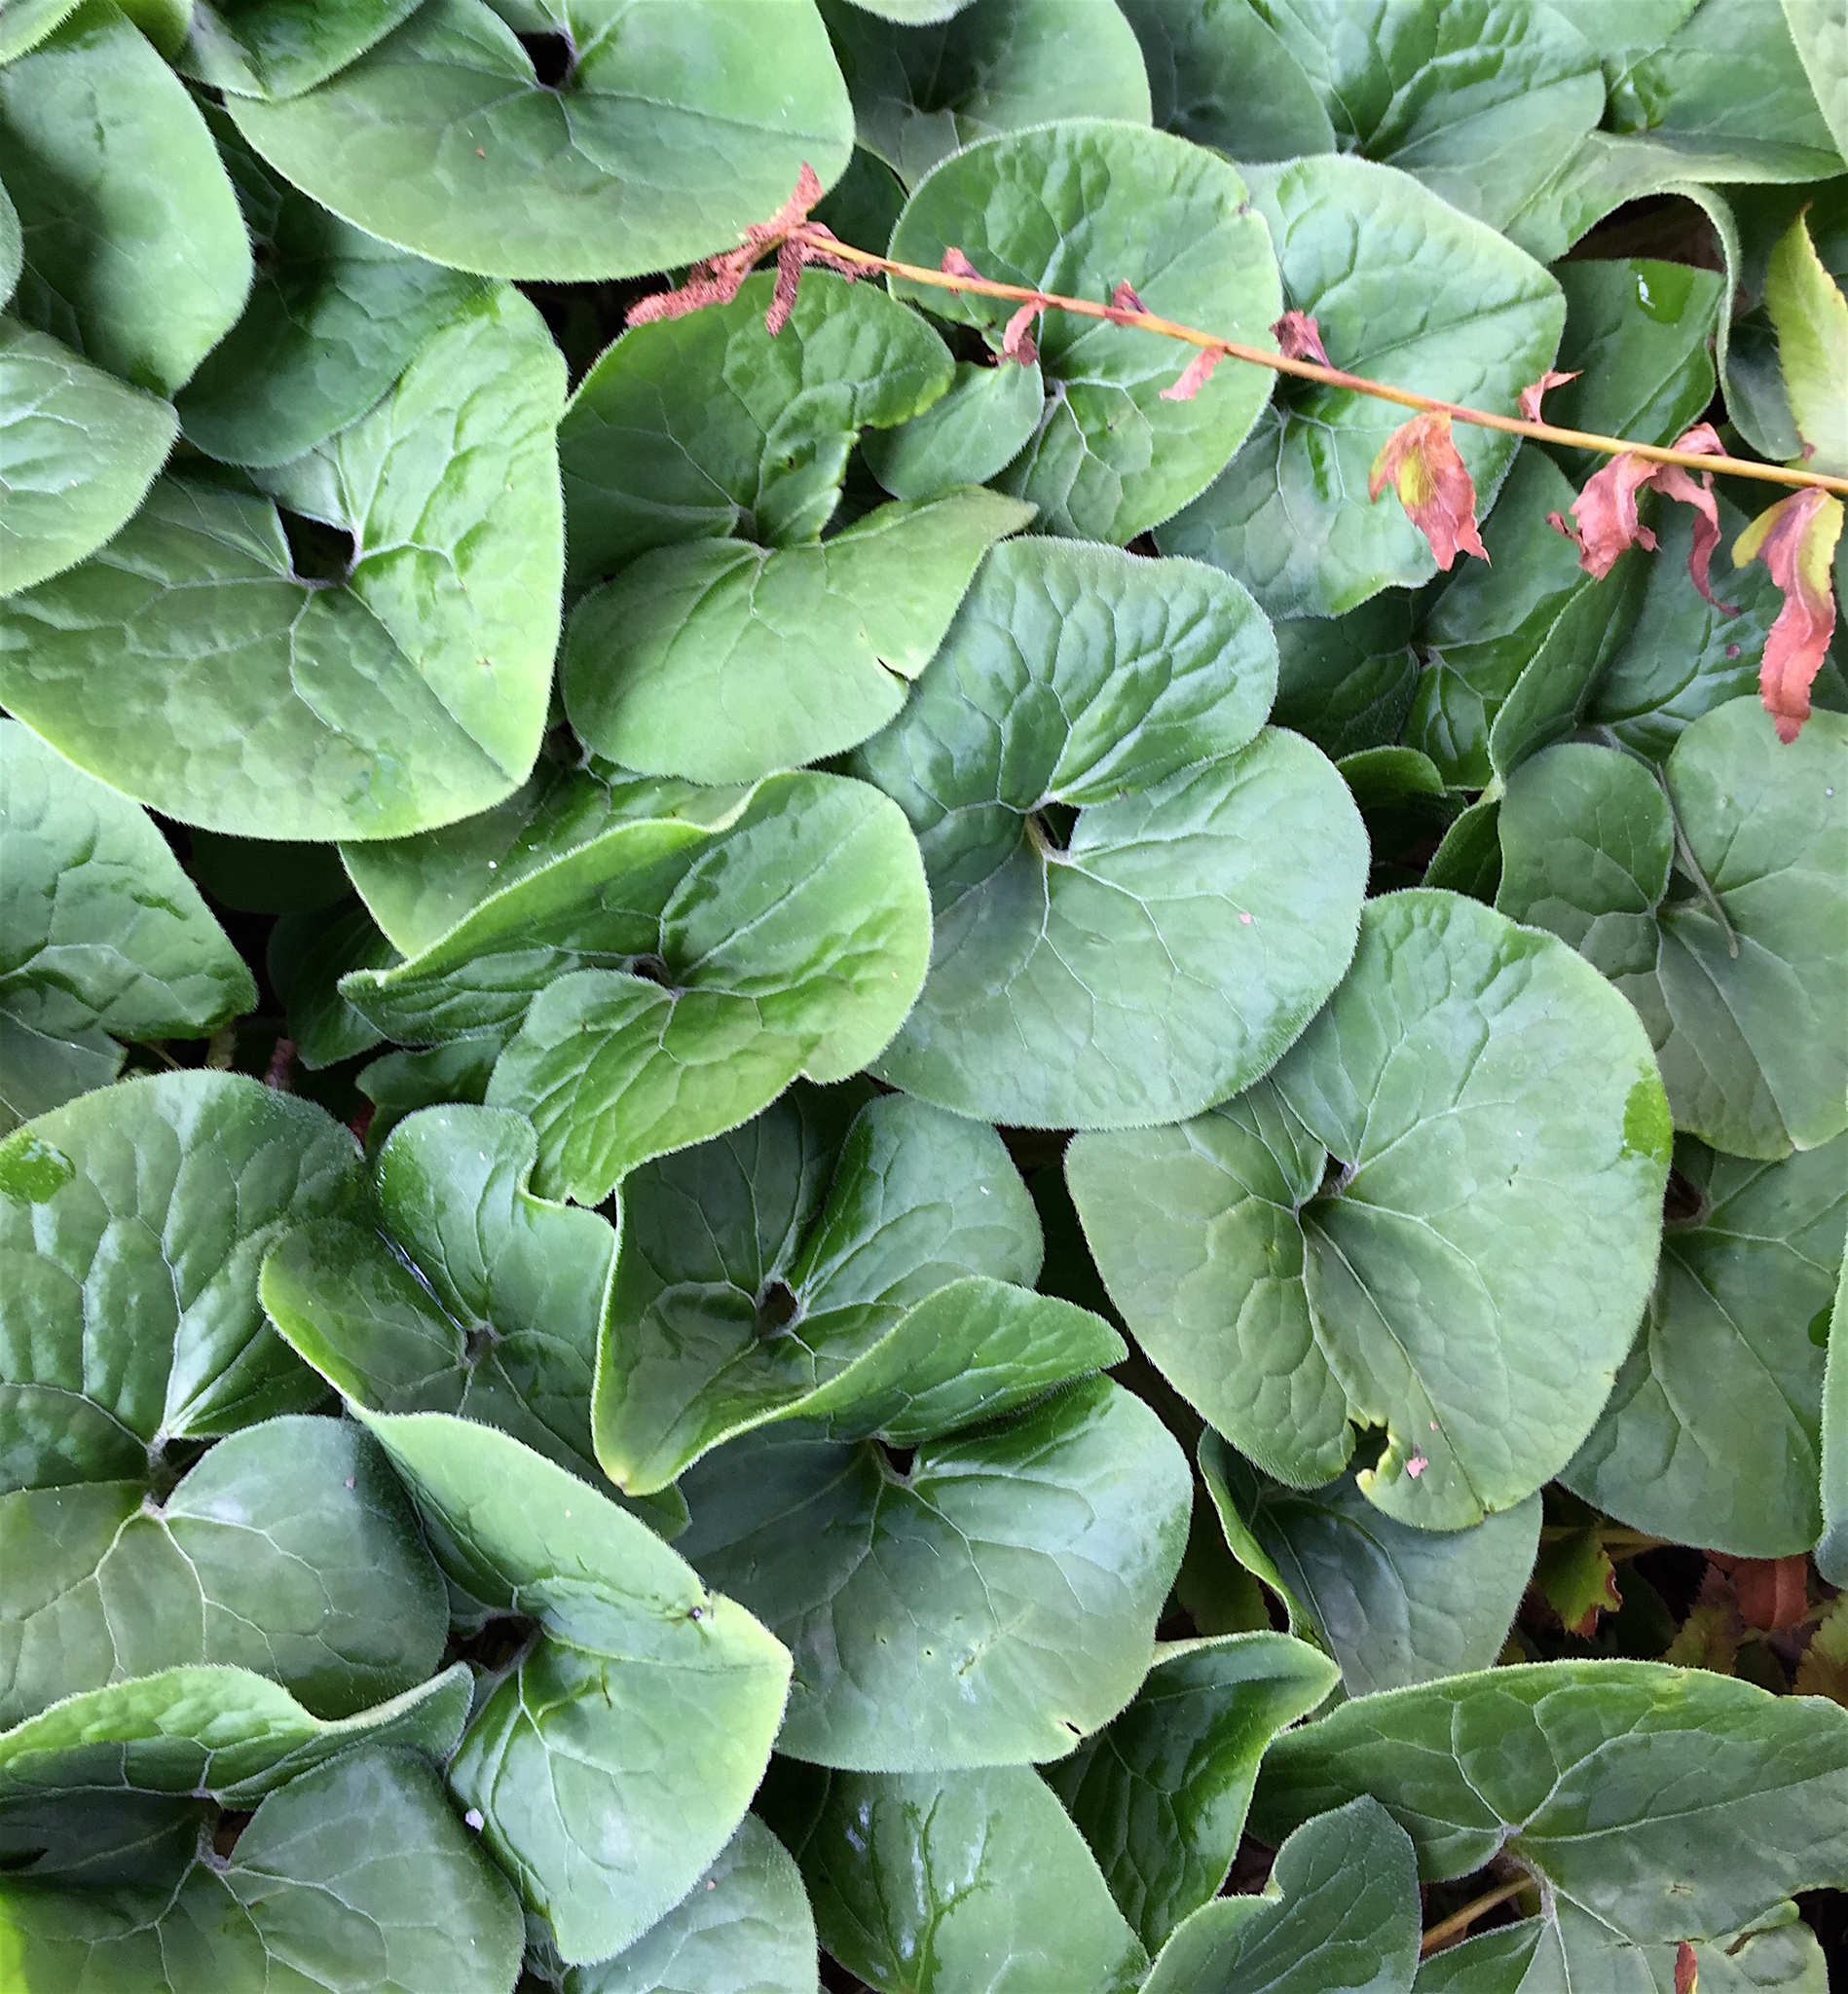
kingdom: Plantae
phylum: Tracheophyta
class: Magnoliopsida
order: Piperales
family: Aristolochiaceae
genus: Asarum
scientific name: Asarum canadense
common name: Wild ginger
